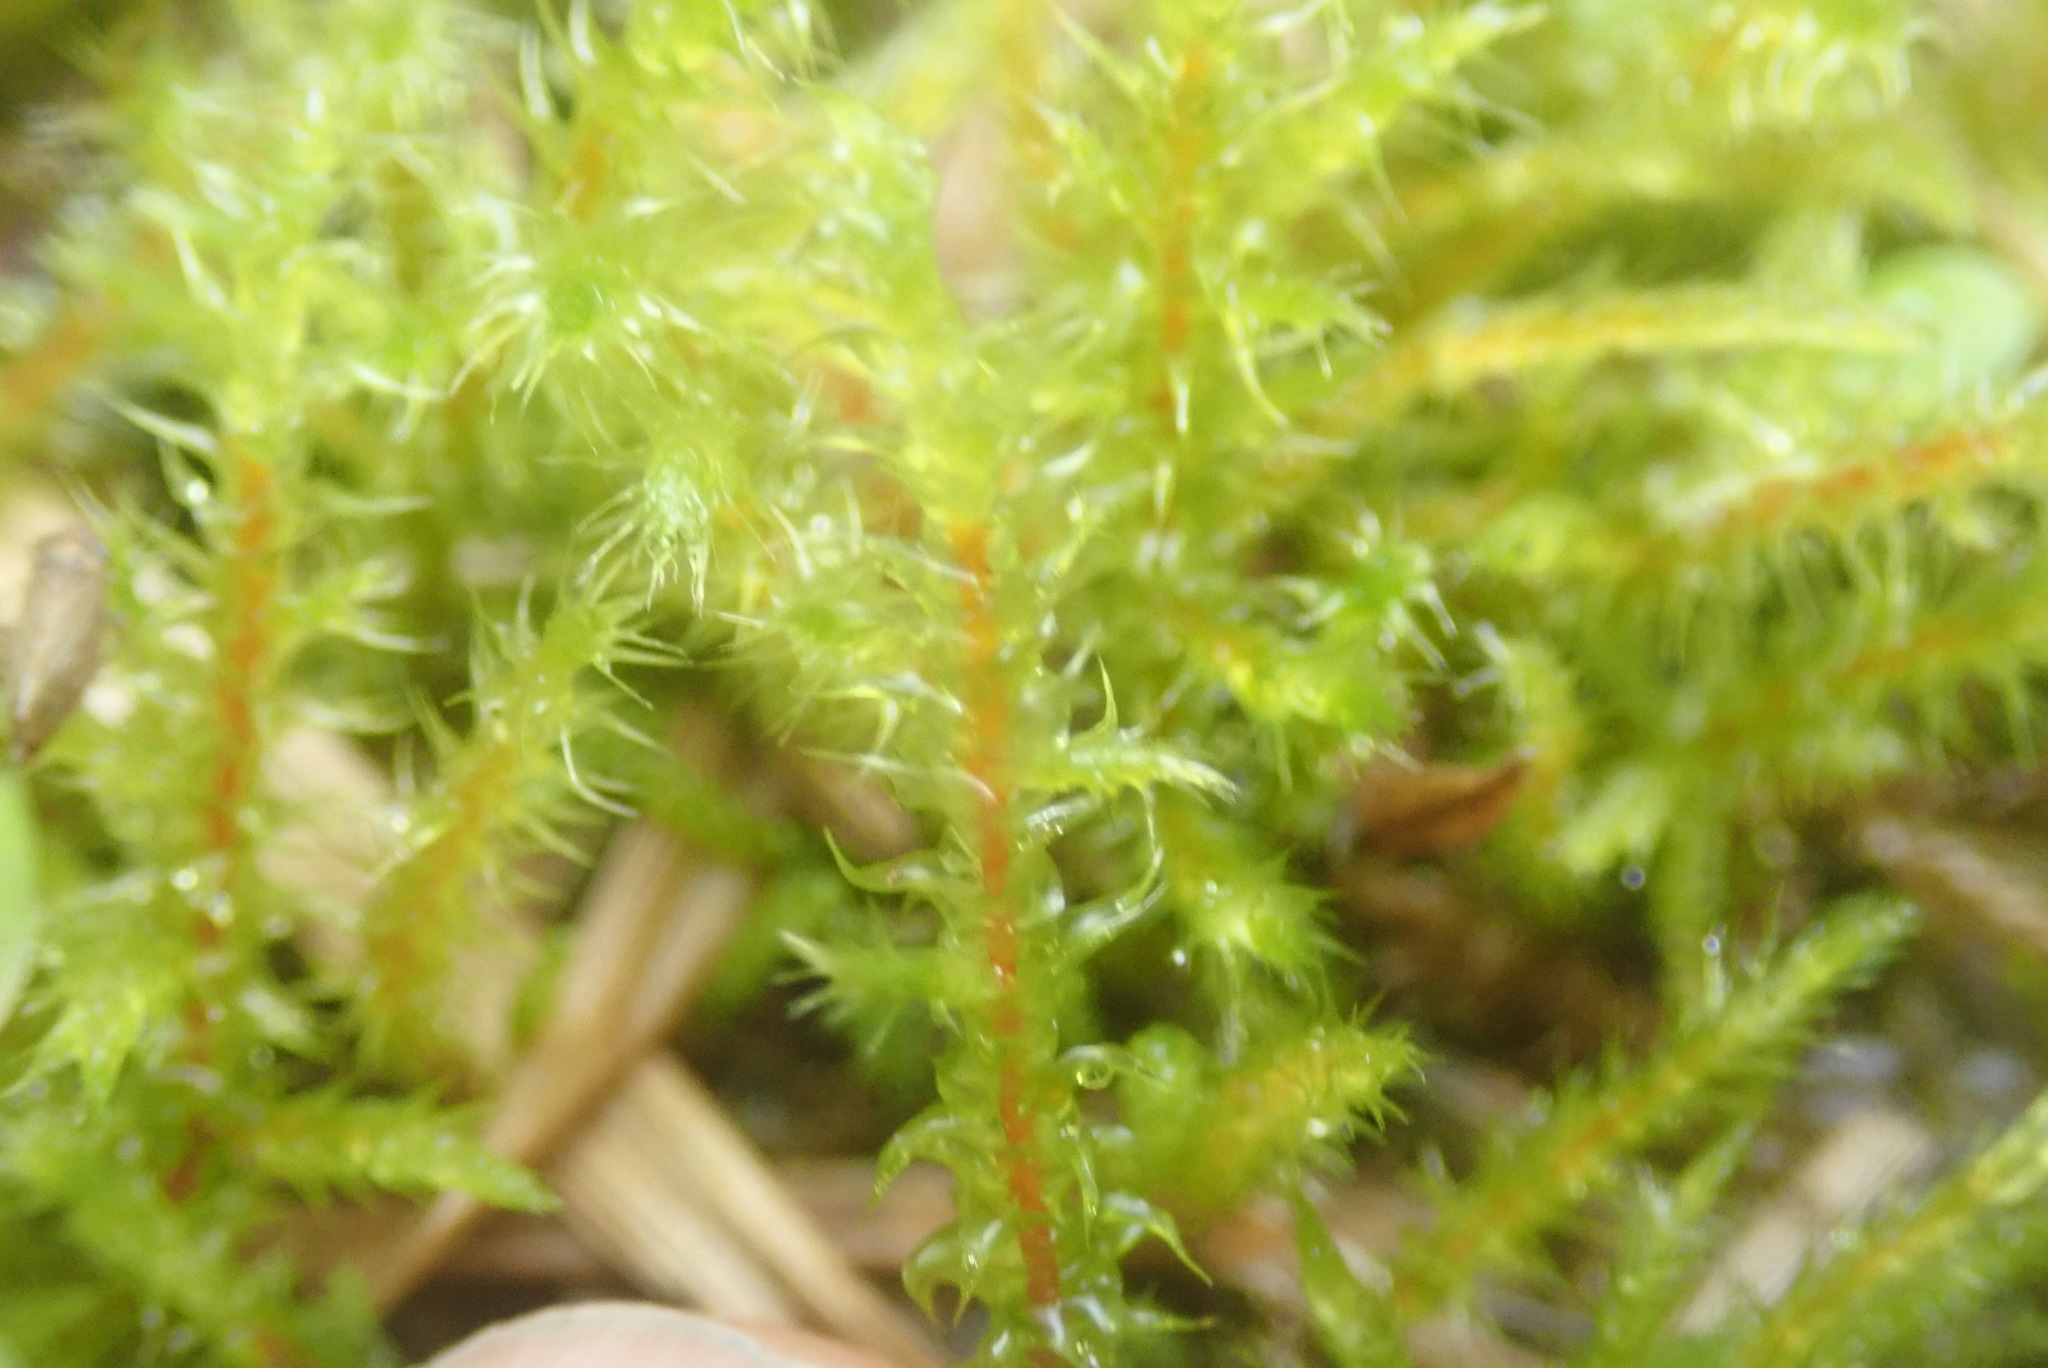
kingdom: Plantae
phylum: Bryophyta
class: Bryopsida
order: Hypnales
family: Hylocomiaceae
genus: Rhytidiadelphus
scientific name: Rhytidiadelphus squarrosus
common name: Springy turf-moss
